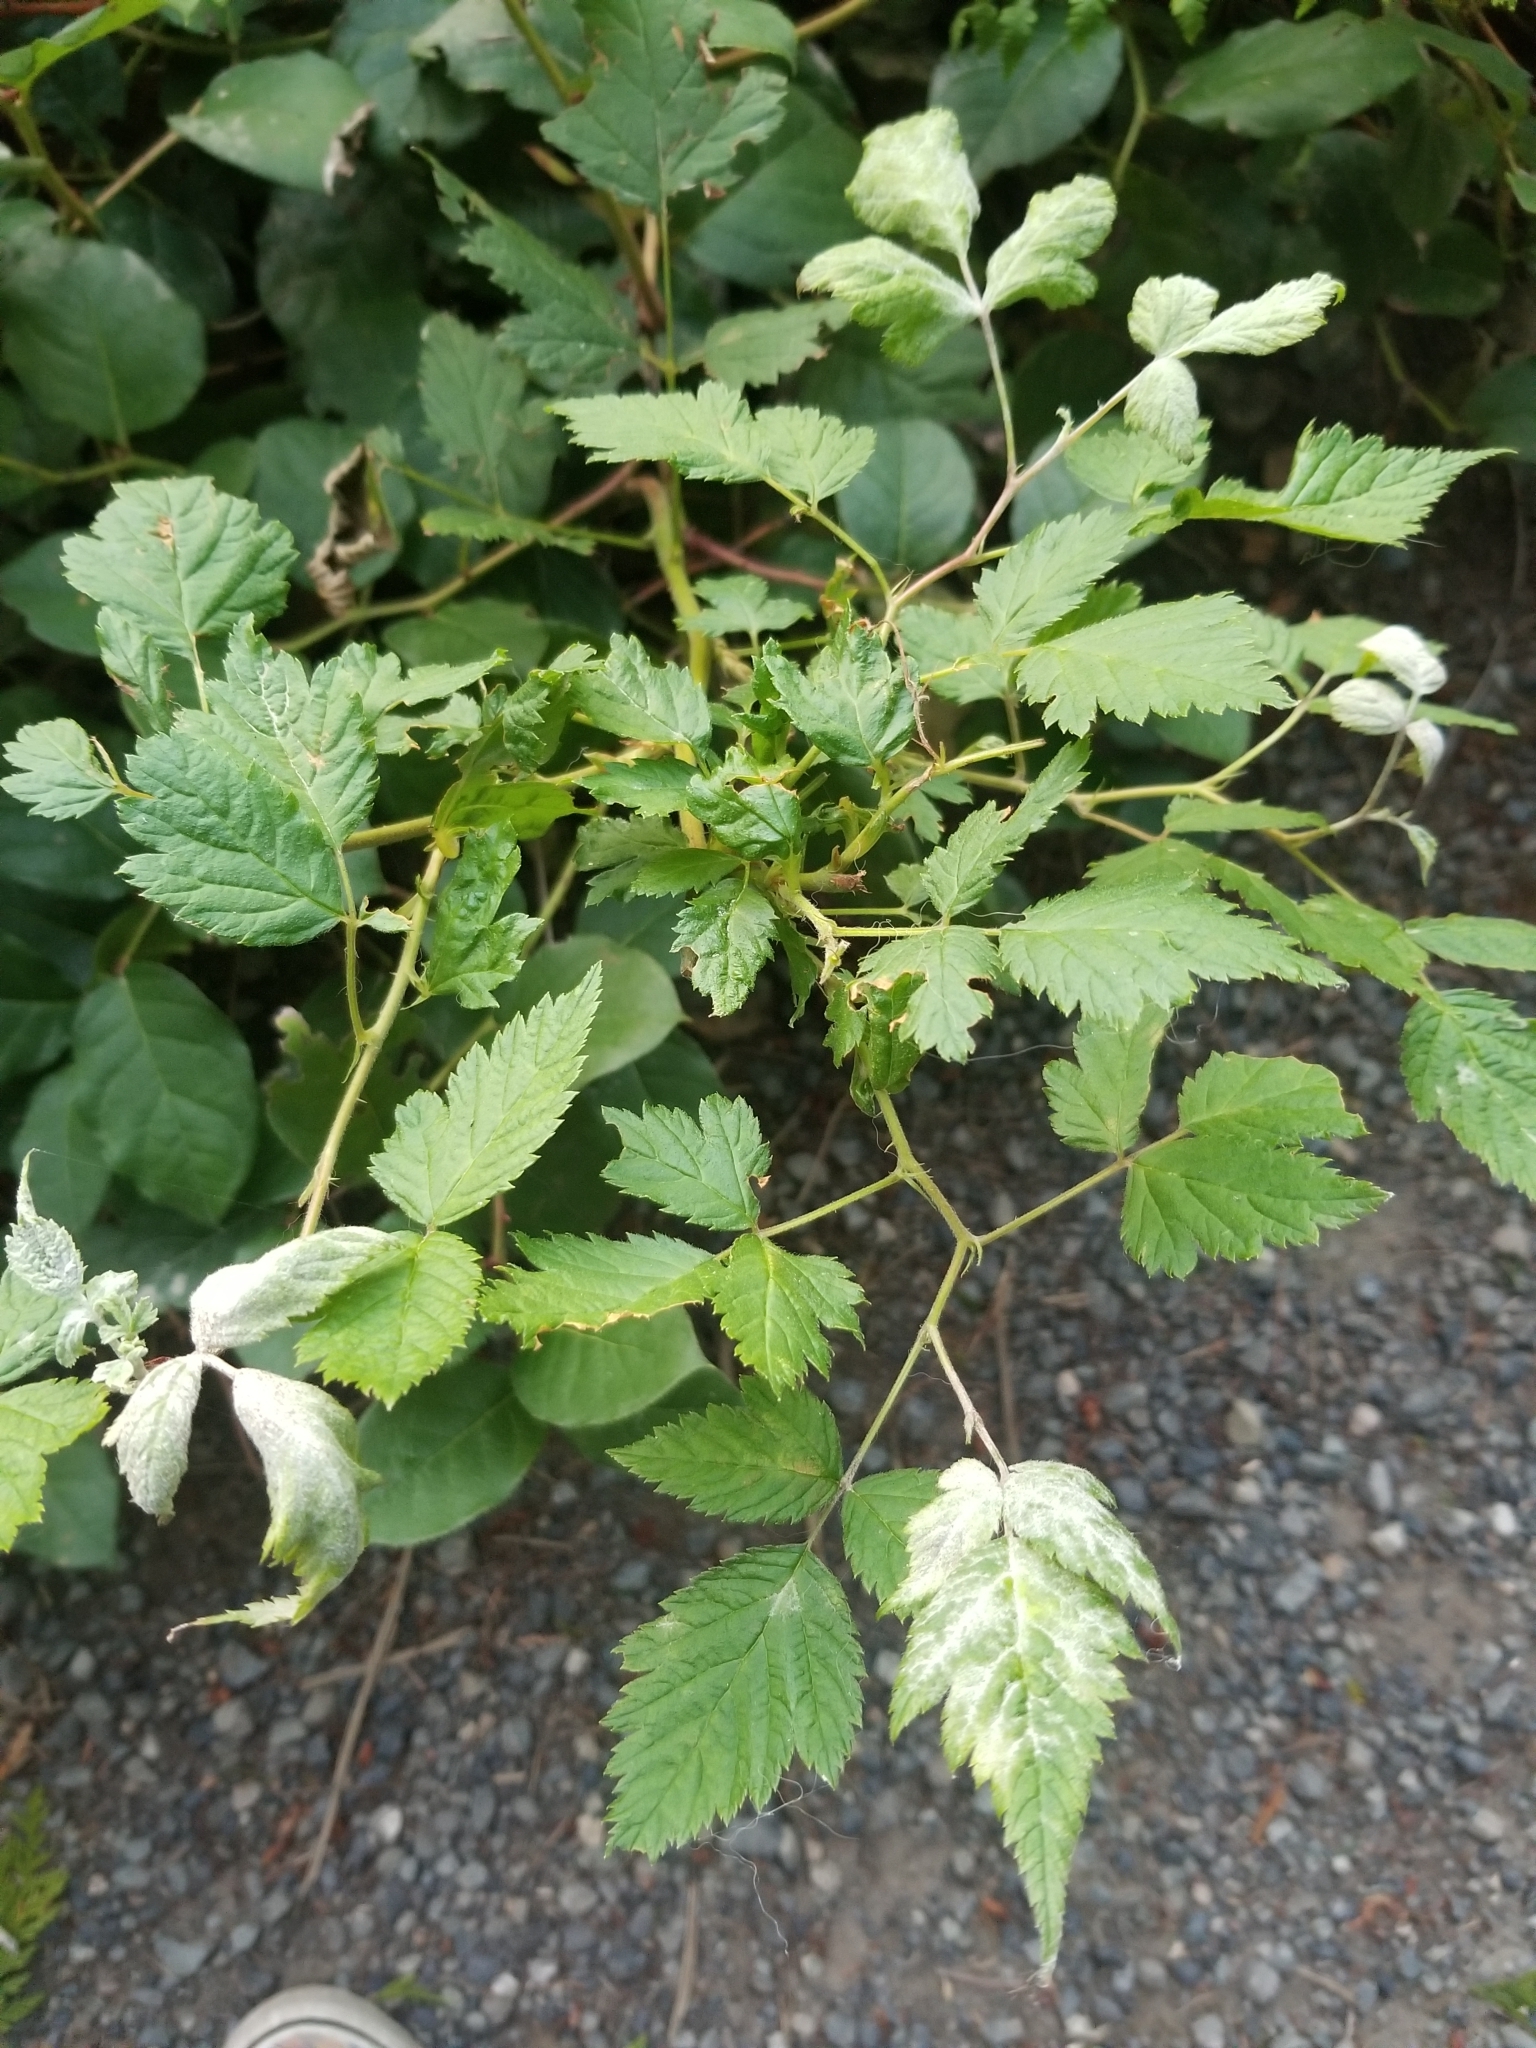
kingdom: Plantae
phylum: Tracheophyta
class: Magnoliopsida
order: Rosales
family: Rosaceae
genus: Rubus
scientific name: Rubus spectabilis
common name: Salmonberry
